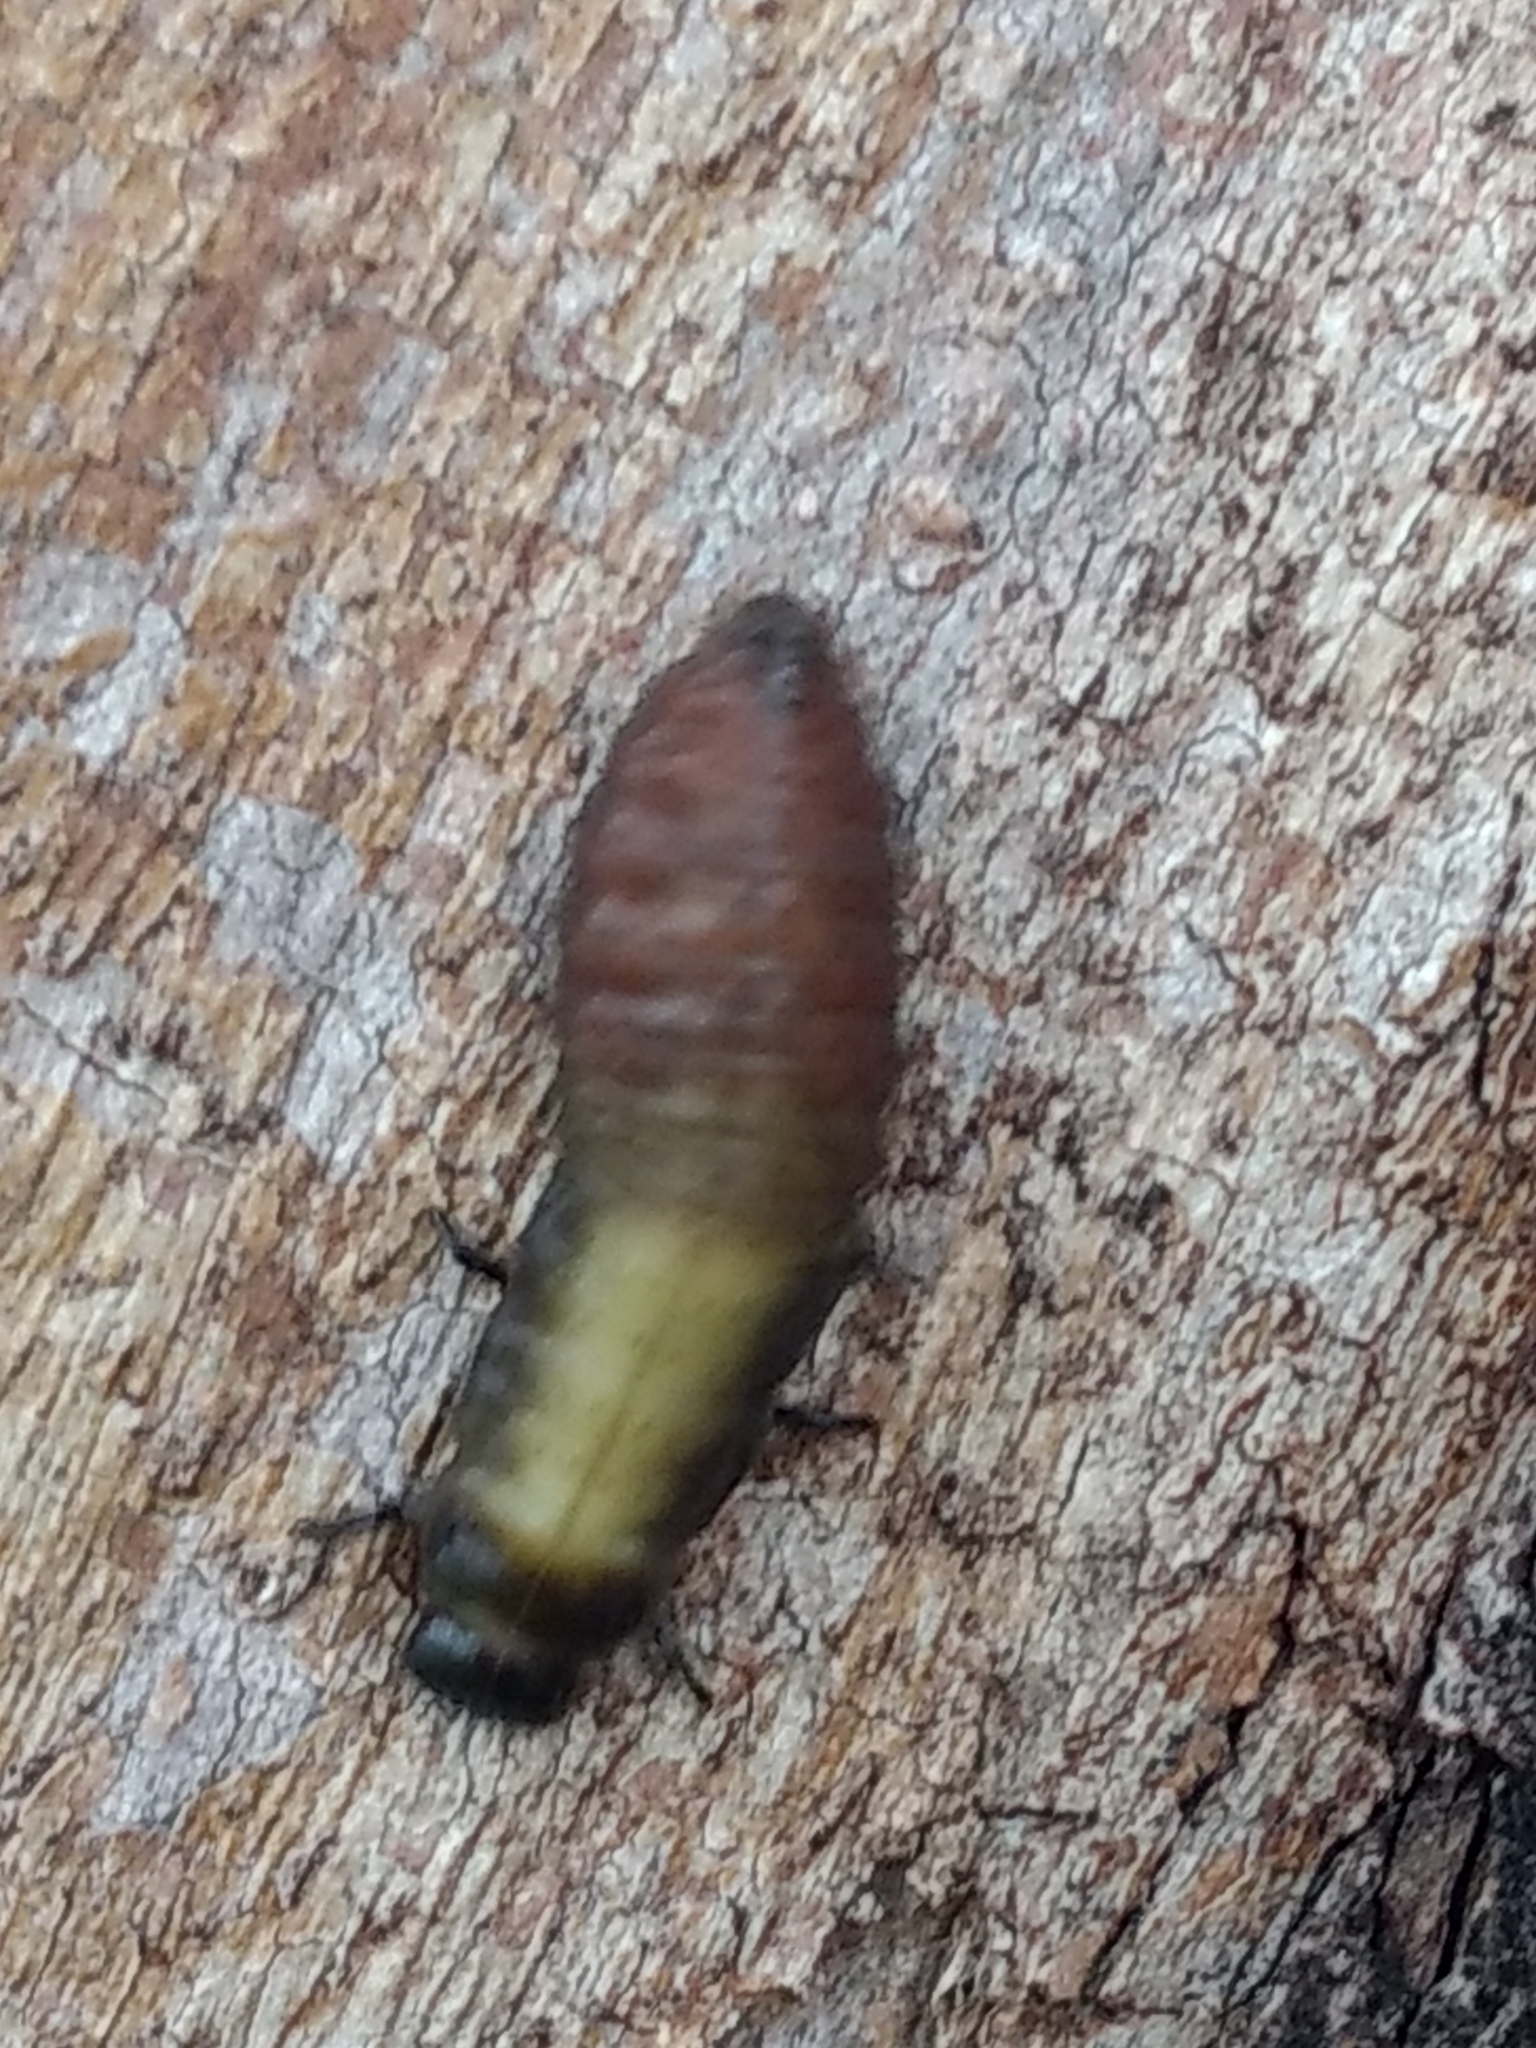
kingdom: Animalia
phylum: Arthropoda
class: Insecta
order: Coleoptera
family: Chrysomelidae
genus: Trachymela
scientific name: Trachymela sloanei
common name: Australian tortoise beetle
